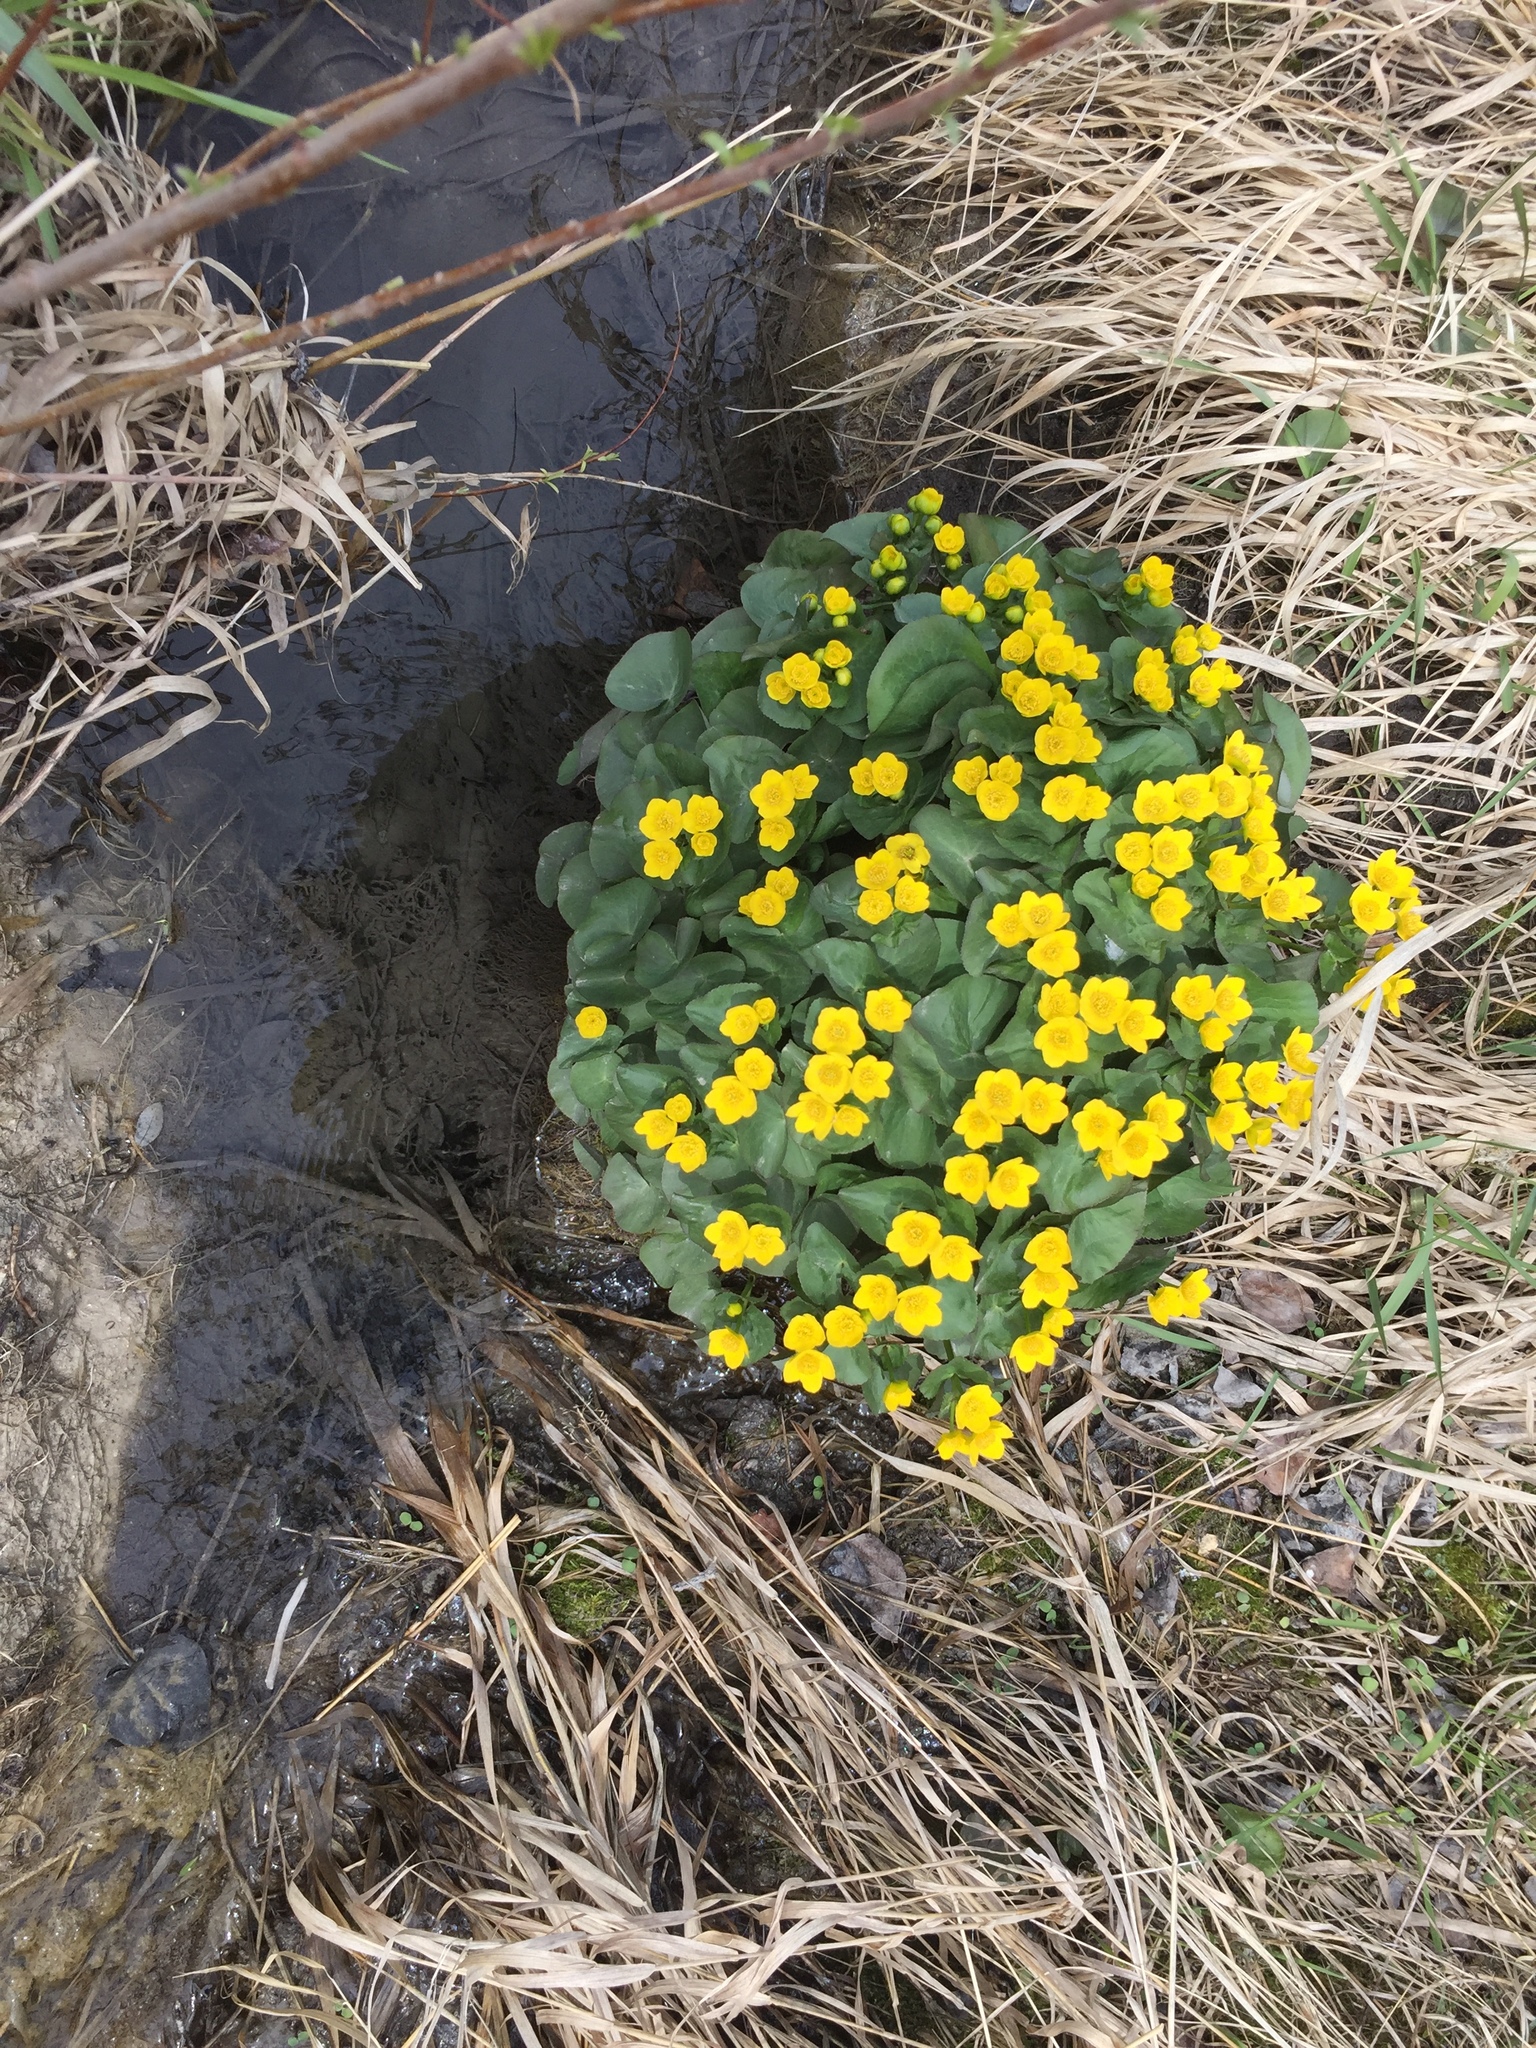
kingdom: Plantae
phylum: Tracheophyta
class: Magnoliopsida
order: Ranunculales
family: Ranunculaceae
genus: Caltha
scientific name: Caltha palustris
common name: Marsh marigold
